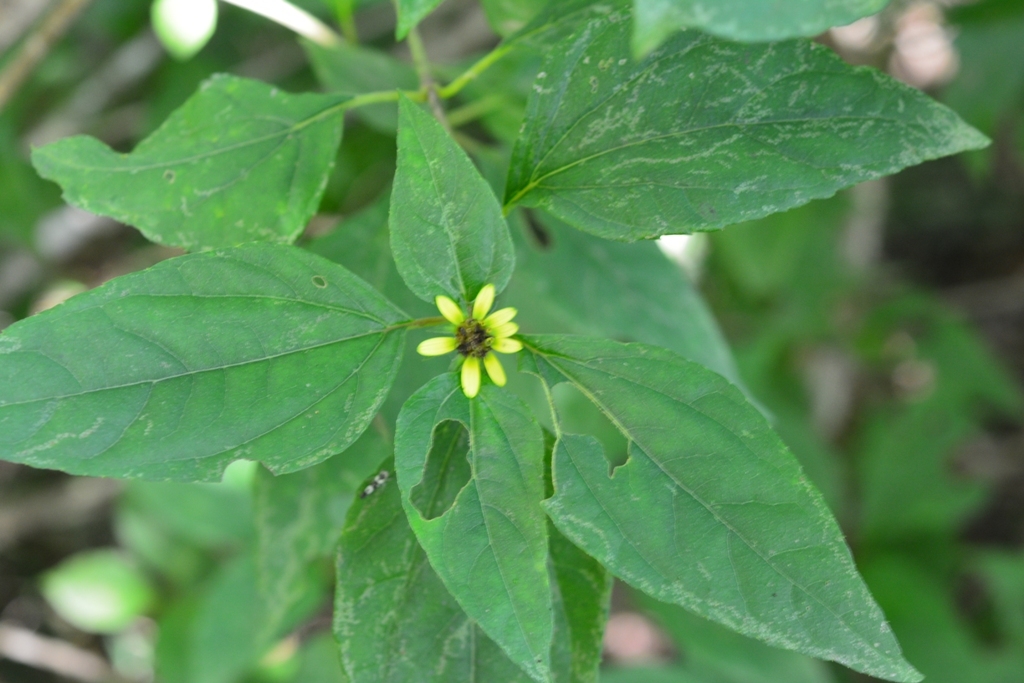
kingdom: Plantae
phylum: Tracheophyta
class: Magnoliopsida
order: Asterales
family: Asteraceae
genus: Philactis
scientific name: Philactis zinnioides
